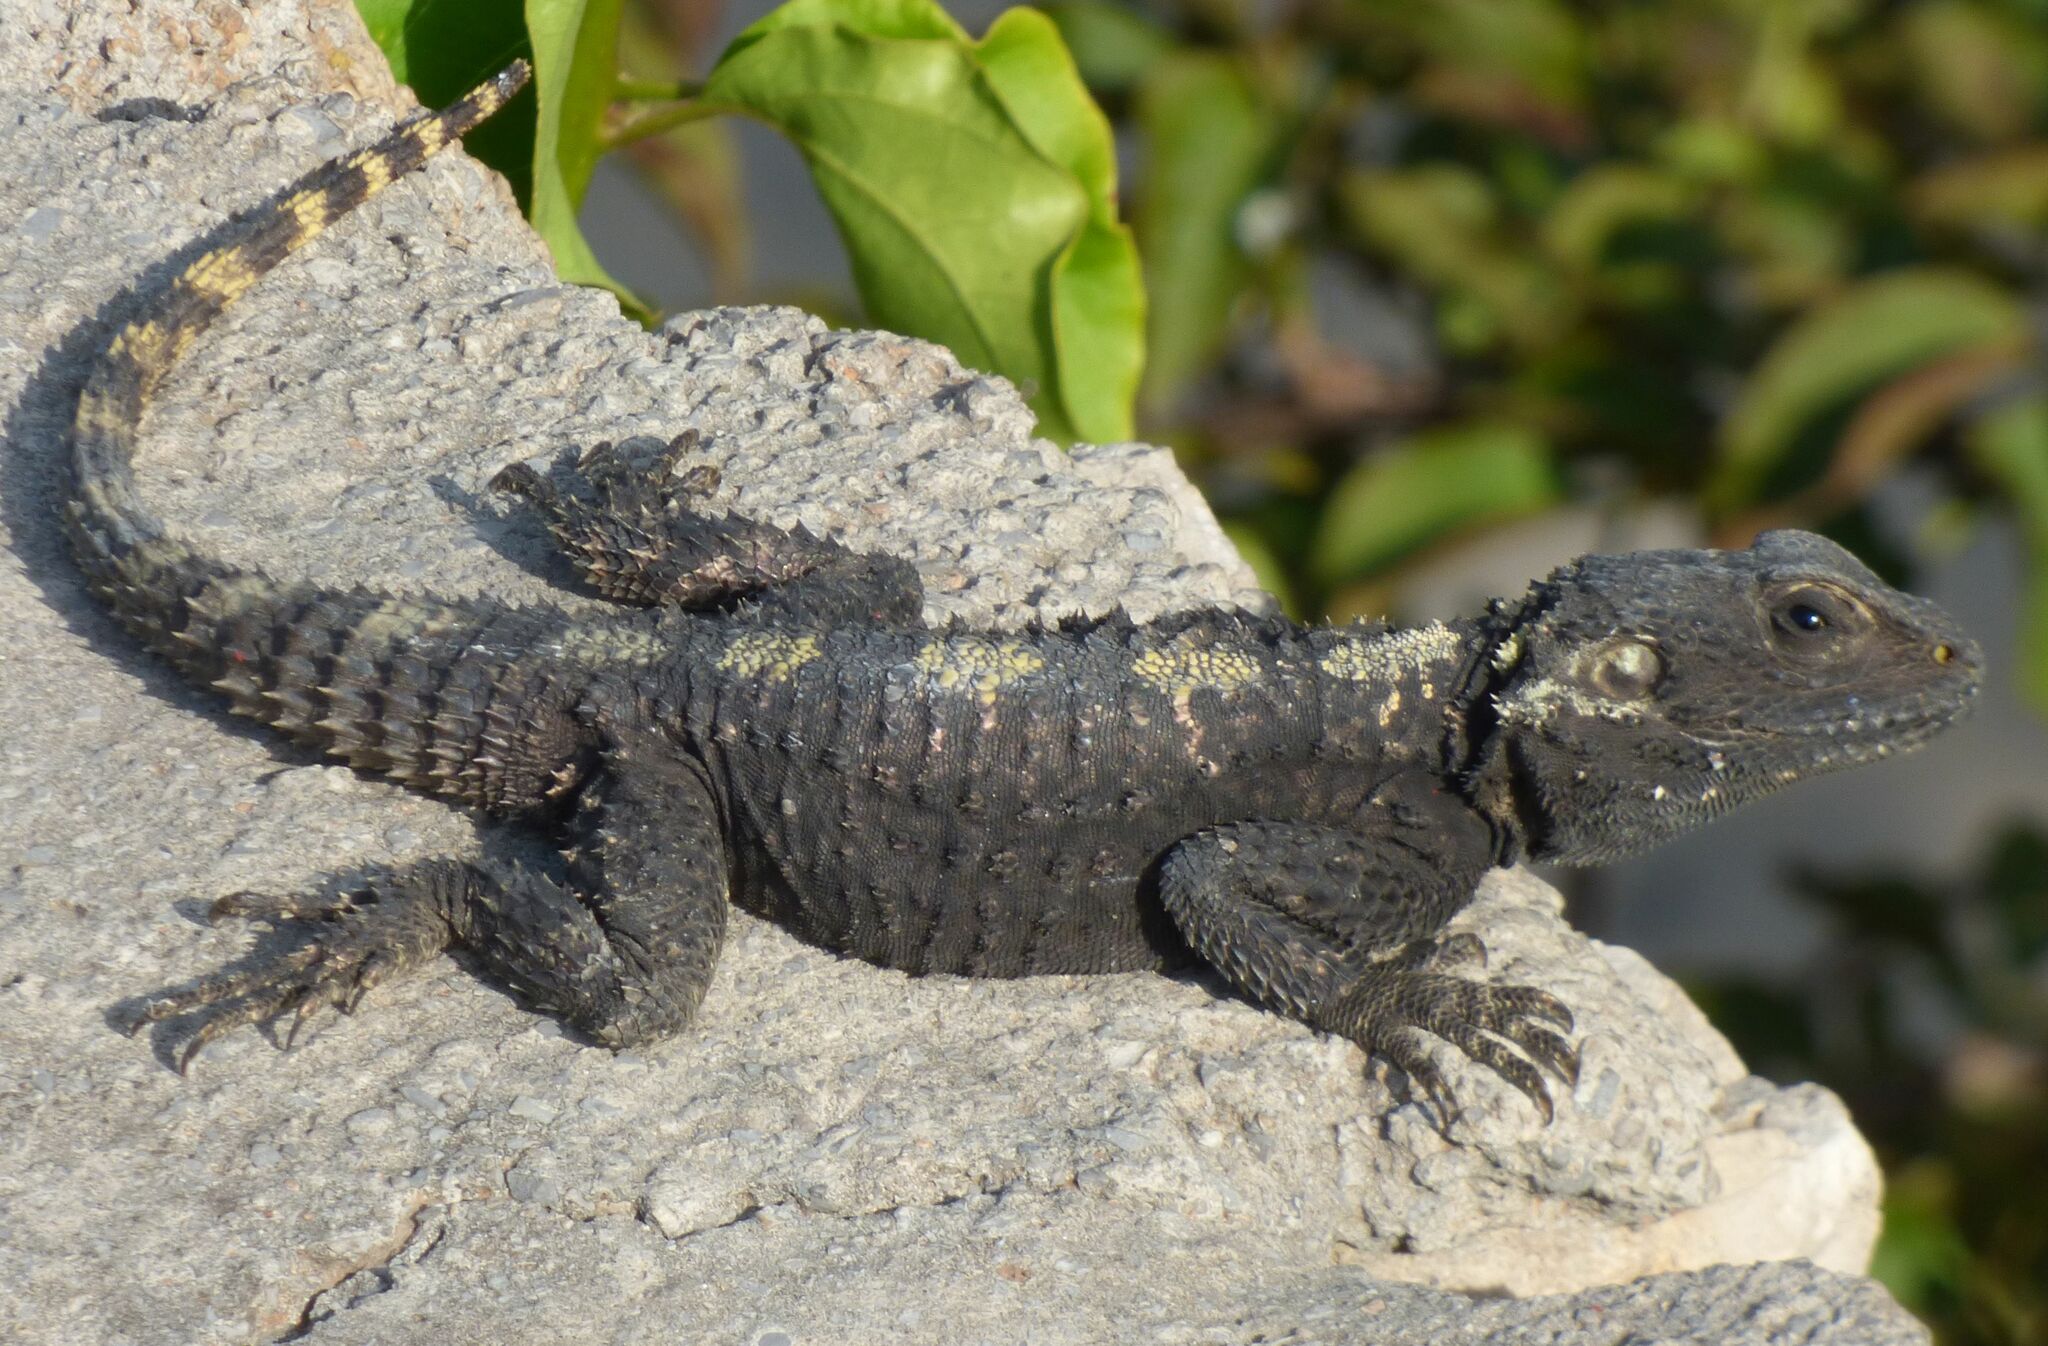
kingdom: Animalia
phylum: Chordata
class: Squamata
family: Agamidae
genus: Stellagama
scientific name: Stellagama stellio
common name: Starred agama
